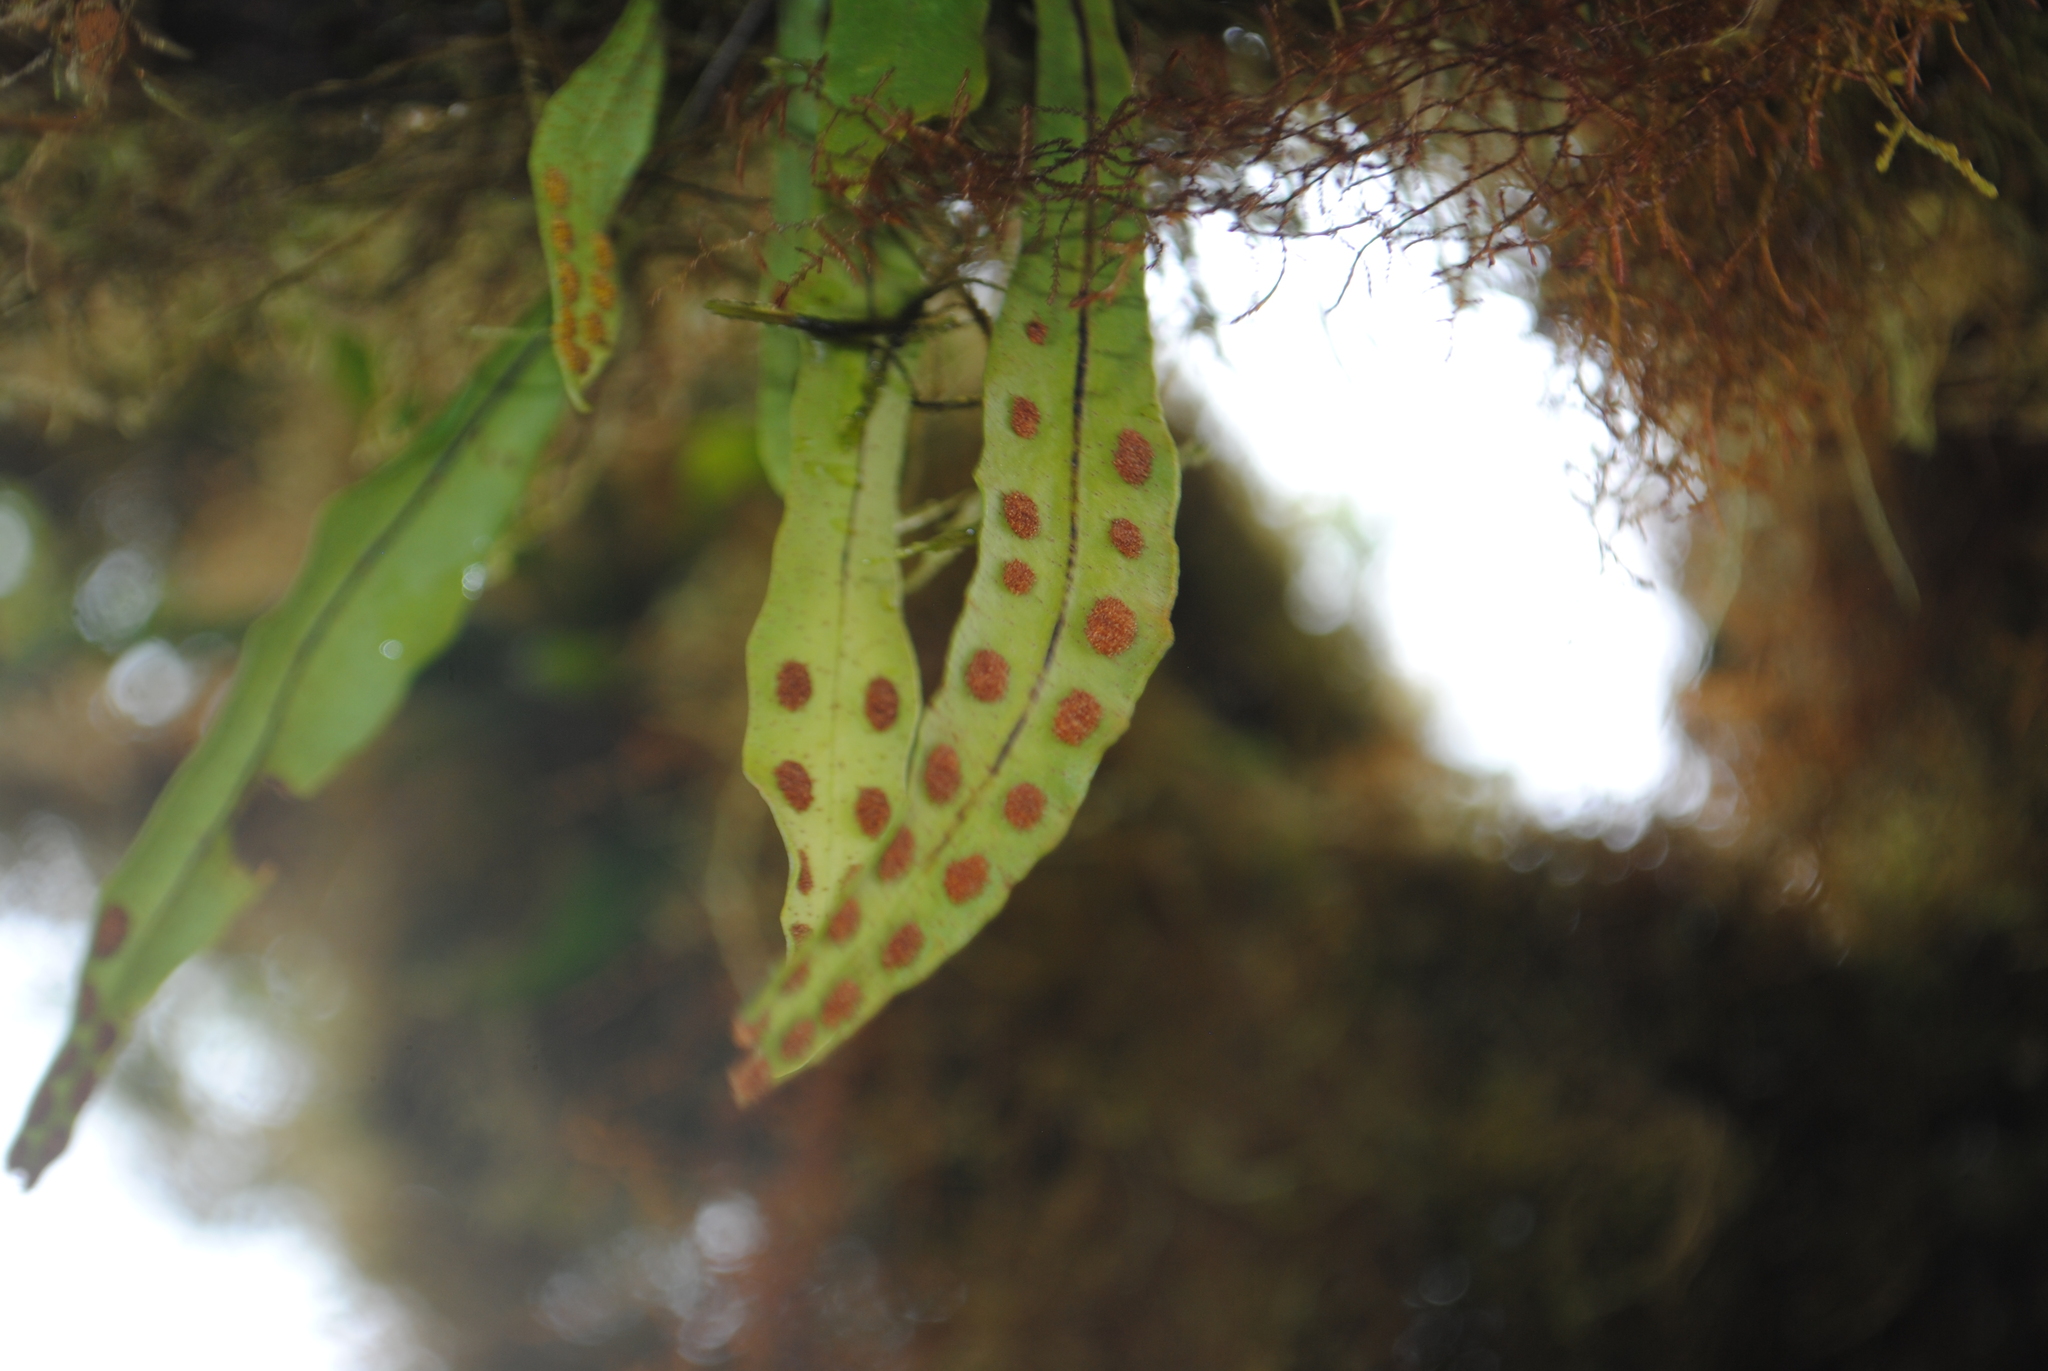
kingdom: Plantae
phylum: Tracheophyta
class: Polypodiopsida
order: Polypodiales
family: Polypodiaceae
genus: Pleopeltis
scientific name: Pleopeltis macrocarpa
